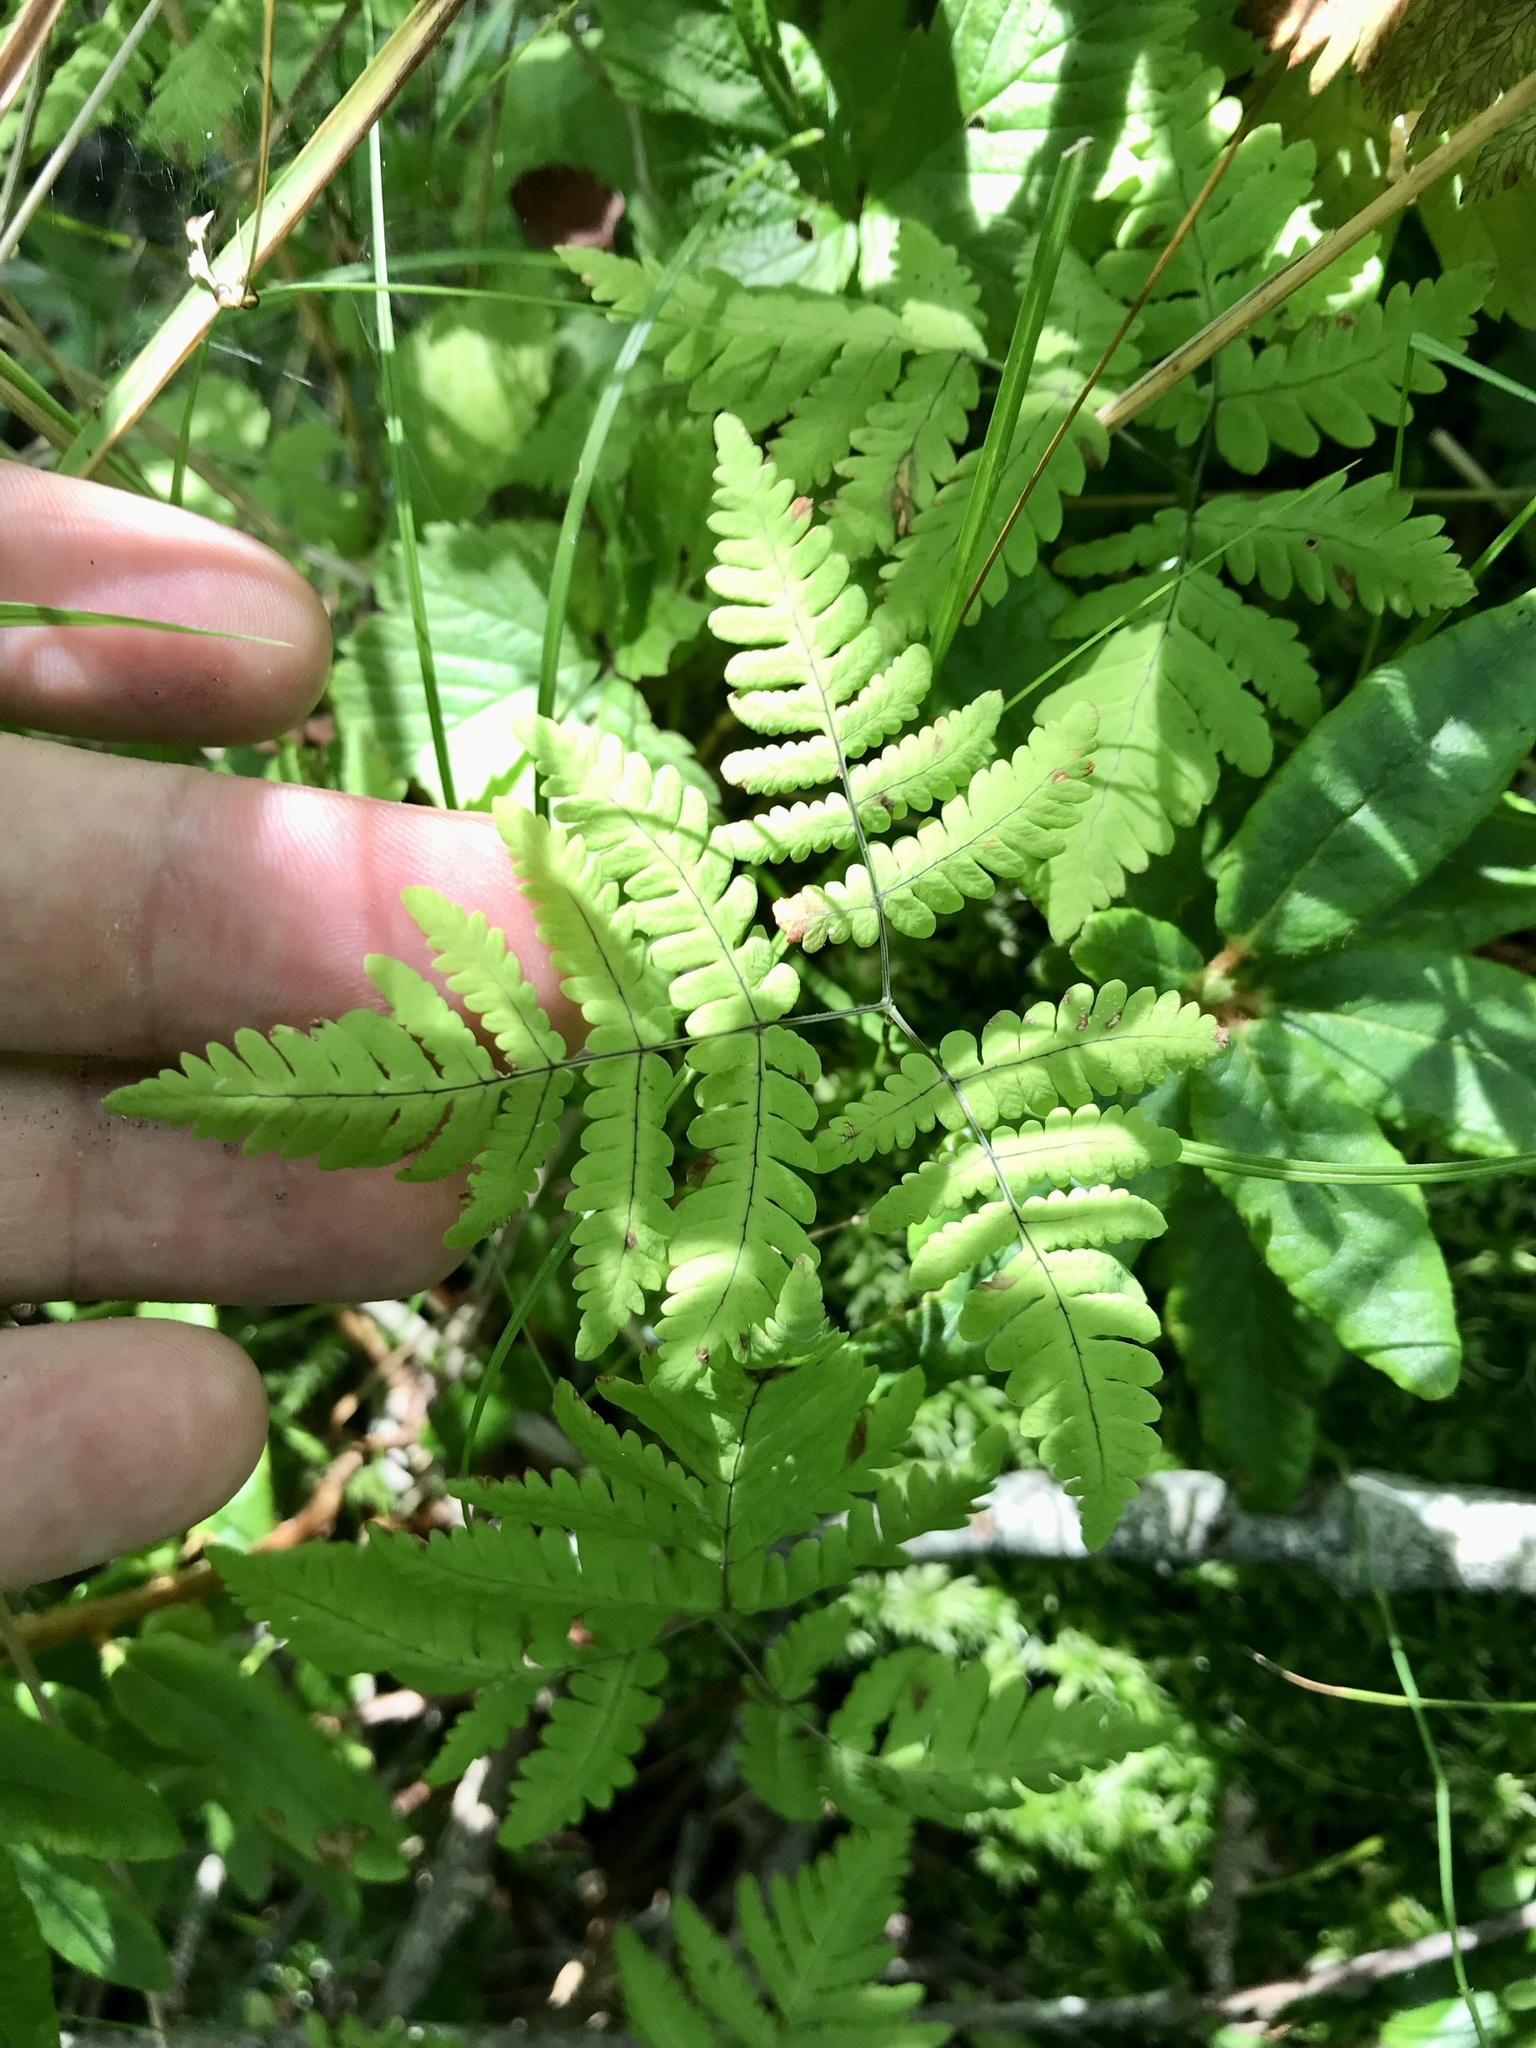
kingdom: Plantae
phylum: Tracheophyta
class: Polypodiopsida
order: Polypodiales
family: Cystopteridaceae
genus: Gymnocarpium
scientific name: Gymnocarpium dryopteris
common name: Oak fern
